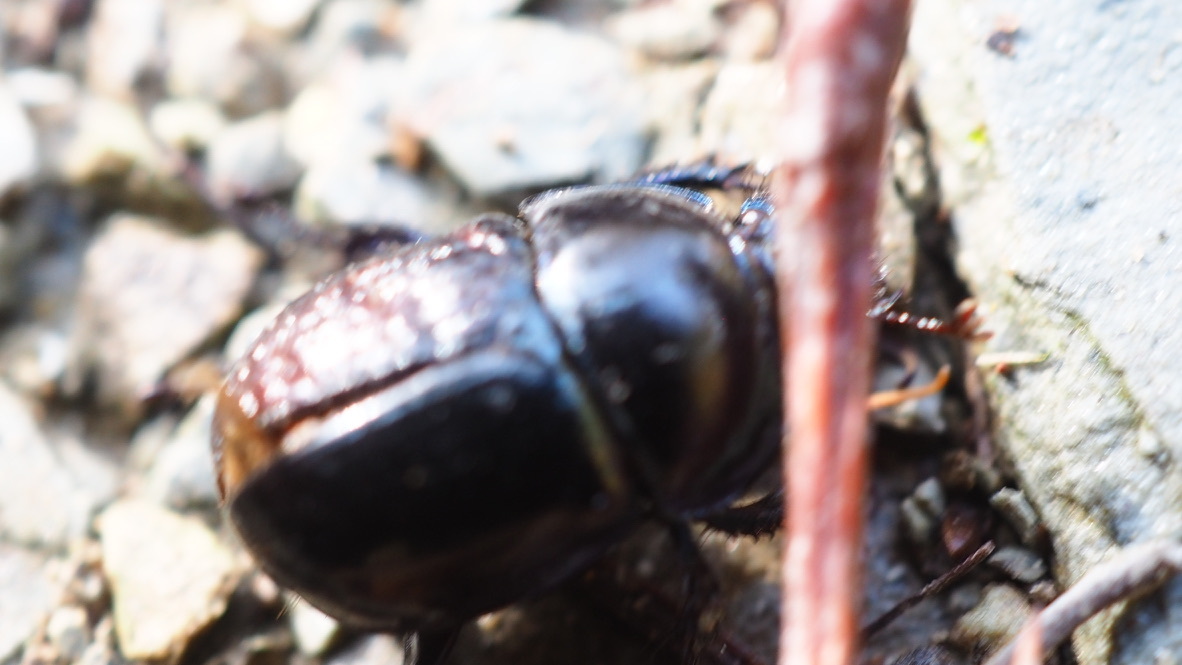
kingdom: Animalia
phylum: Arthropoda
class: Insecta
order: Coleoptera
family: Geotrupidae
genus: Anoplotrupes
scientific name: Anoplotrupes stercorosus
